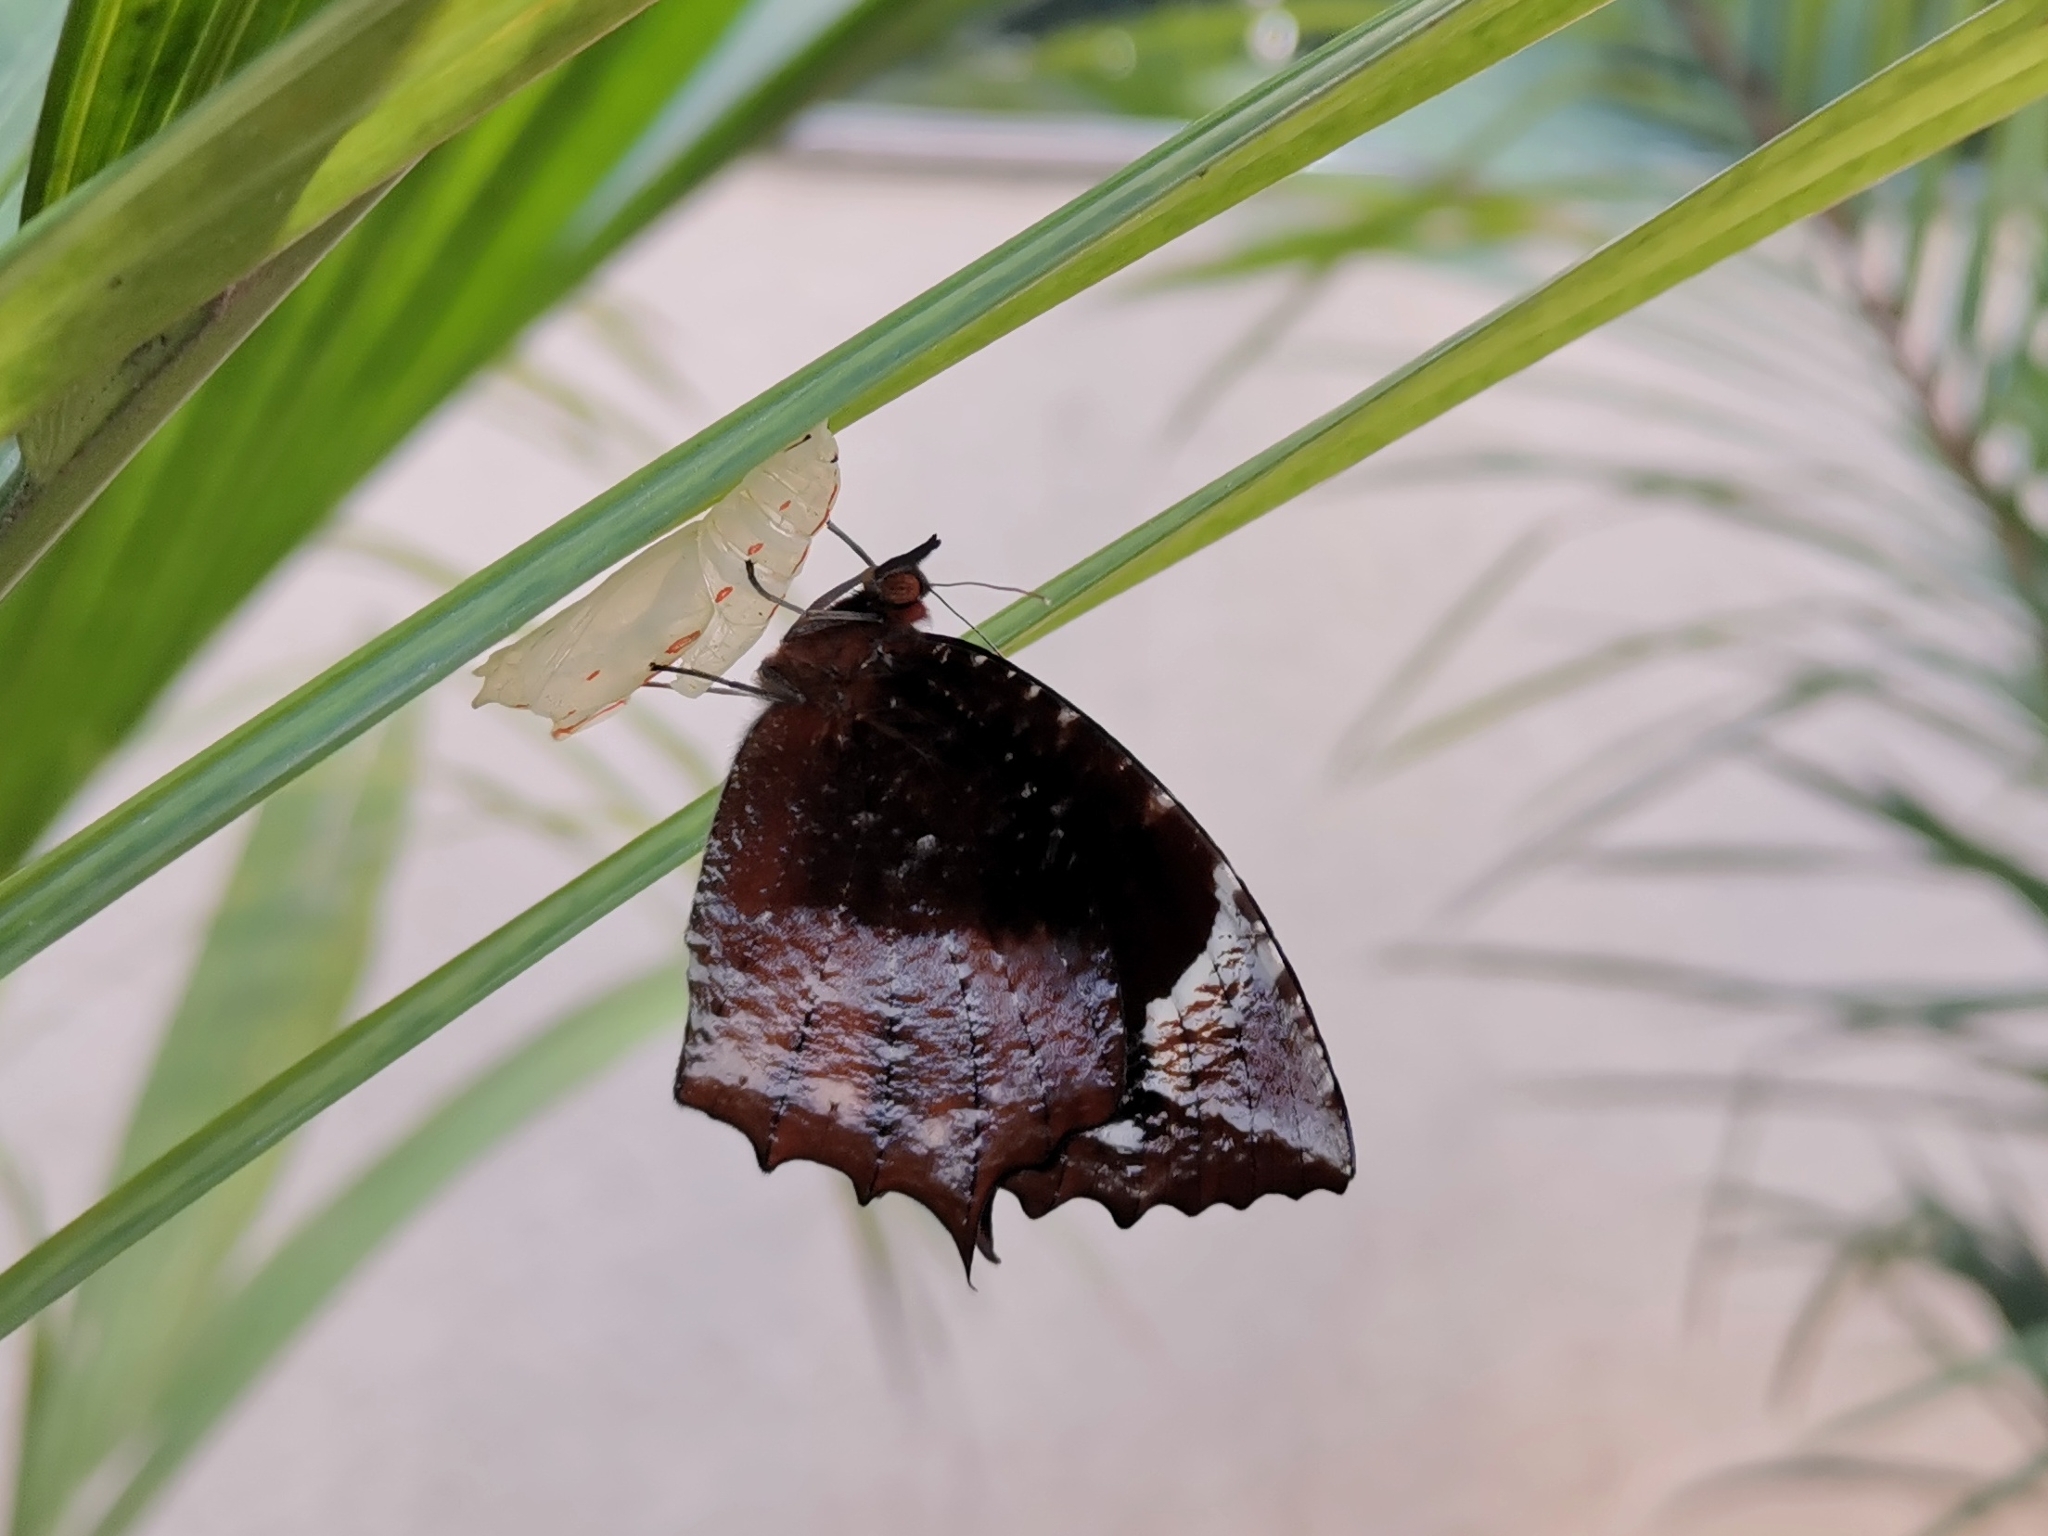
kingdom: Animalia
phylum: Arthropoda
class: Insecta
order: Lepidoptera
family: Nymphalidae
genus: Elymnias
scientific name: Elymnias caudata
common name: Tailed palmfly
